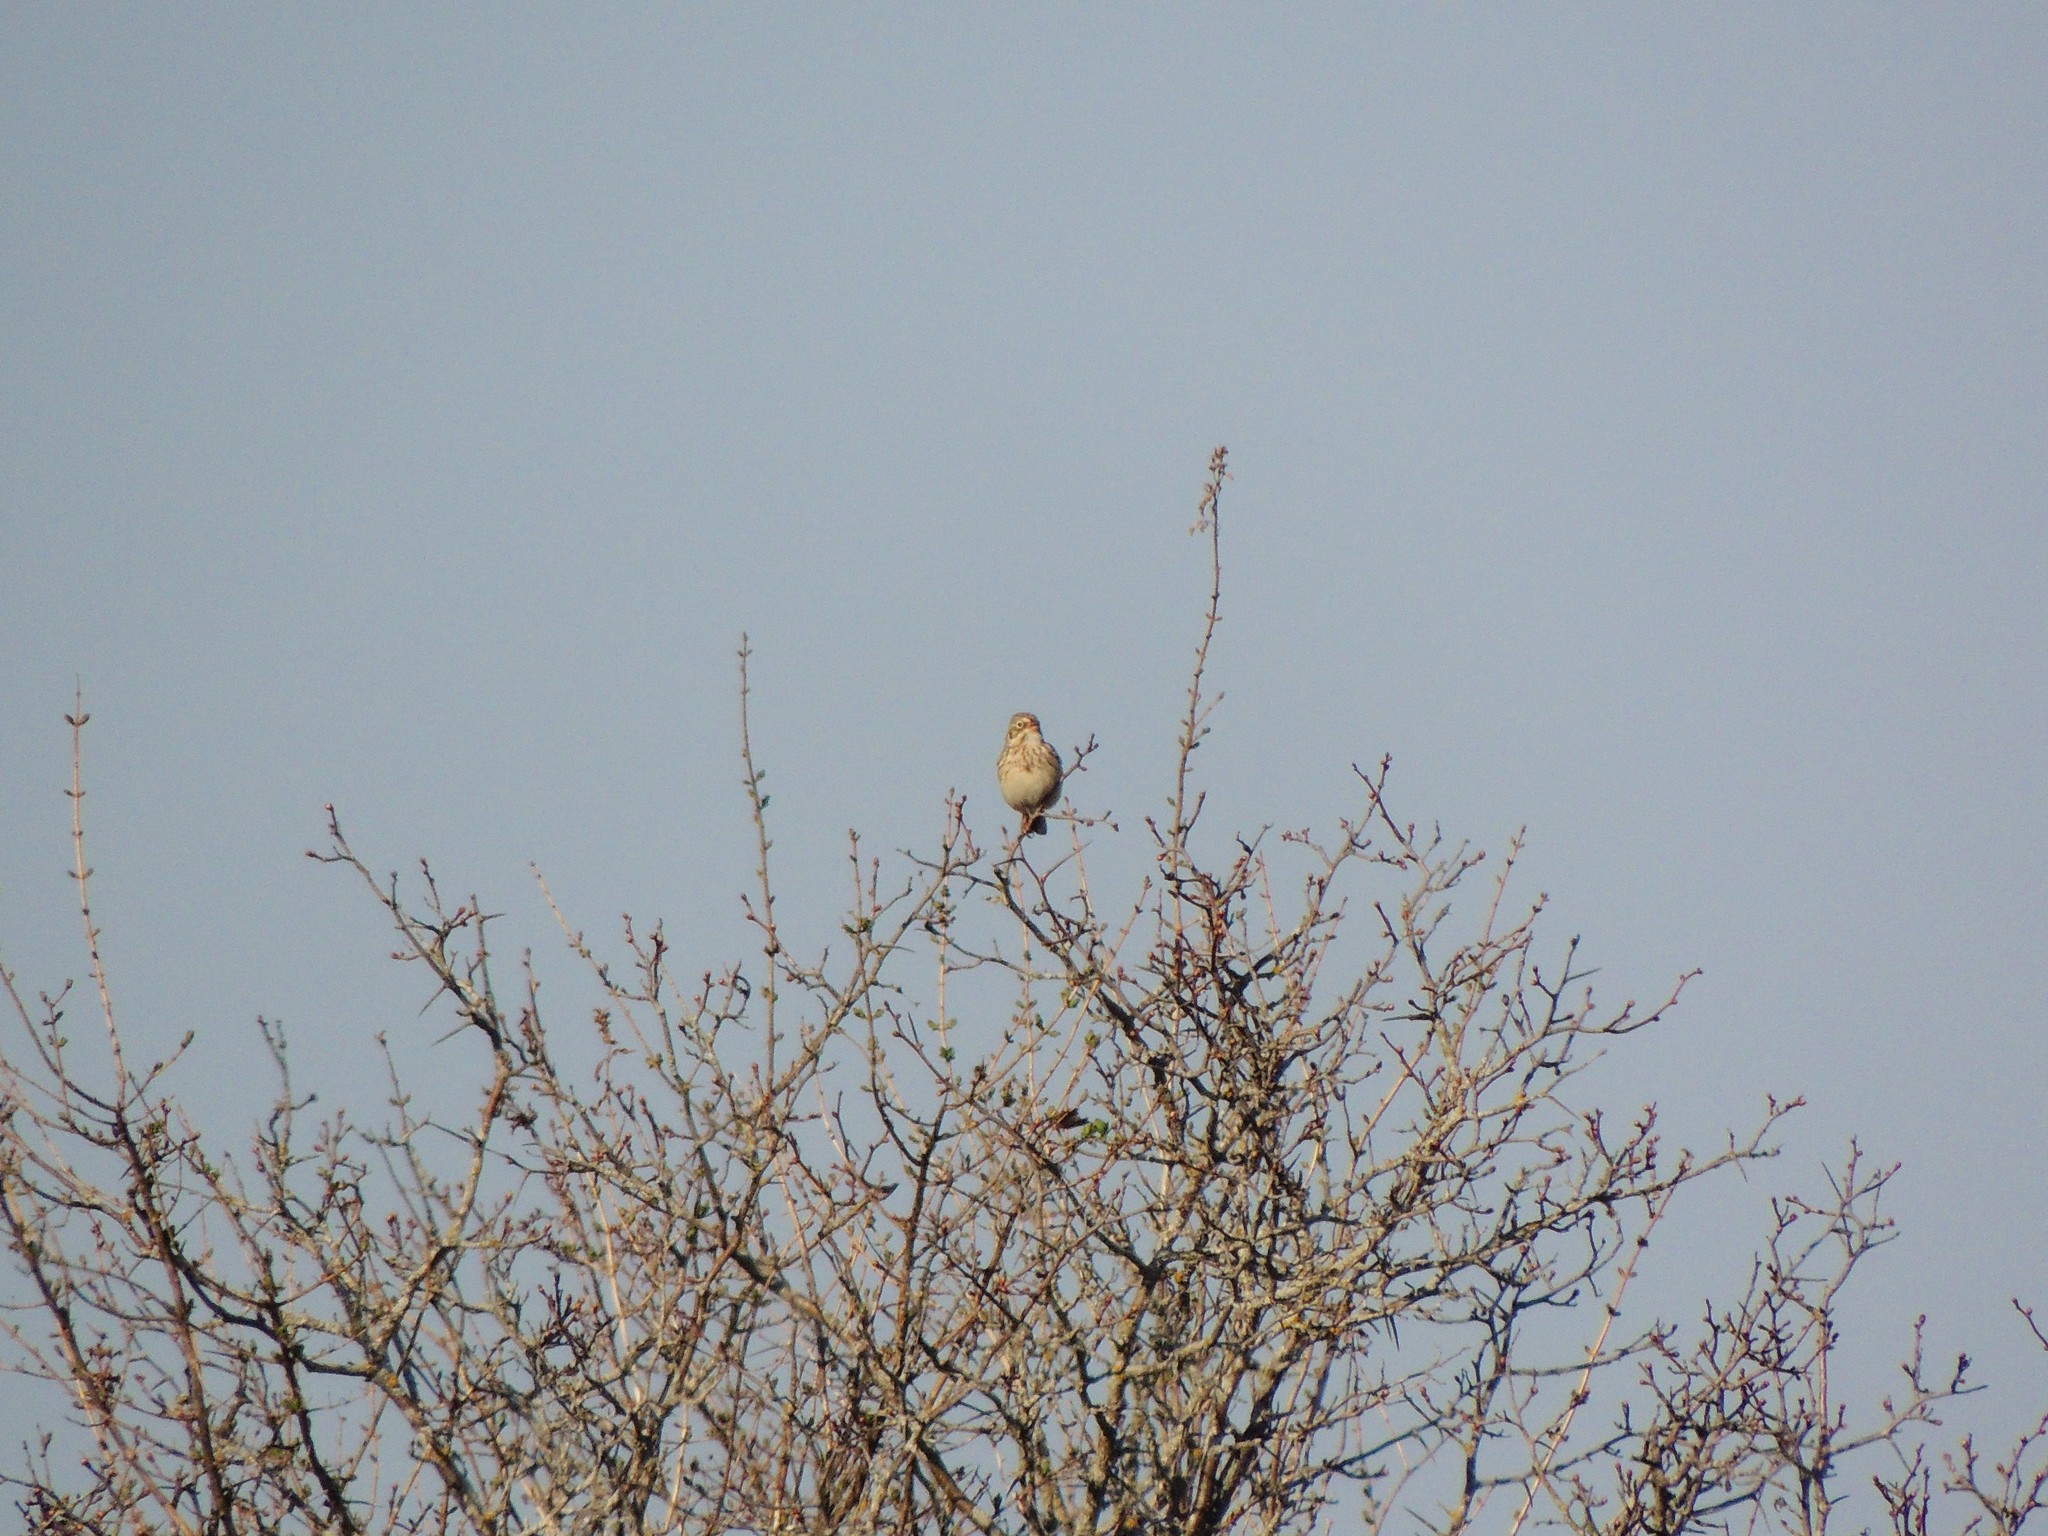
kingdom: Animalia
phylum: Chordata
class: Aves
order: Passeriformes
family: Passerellidae
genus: Pooecetes
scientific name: Pooecetes gramineus
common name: Vesper sparrow
